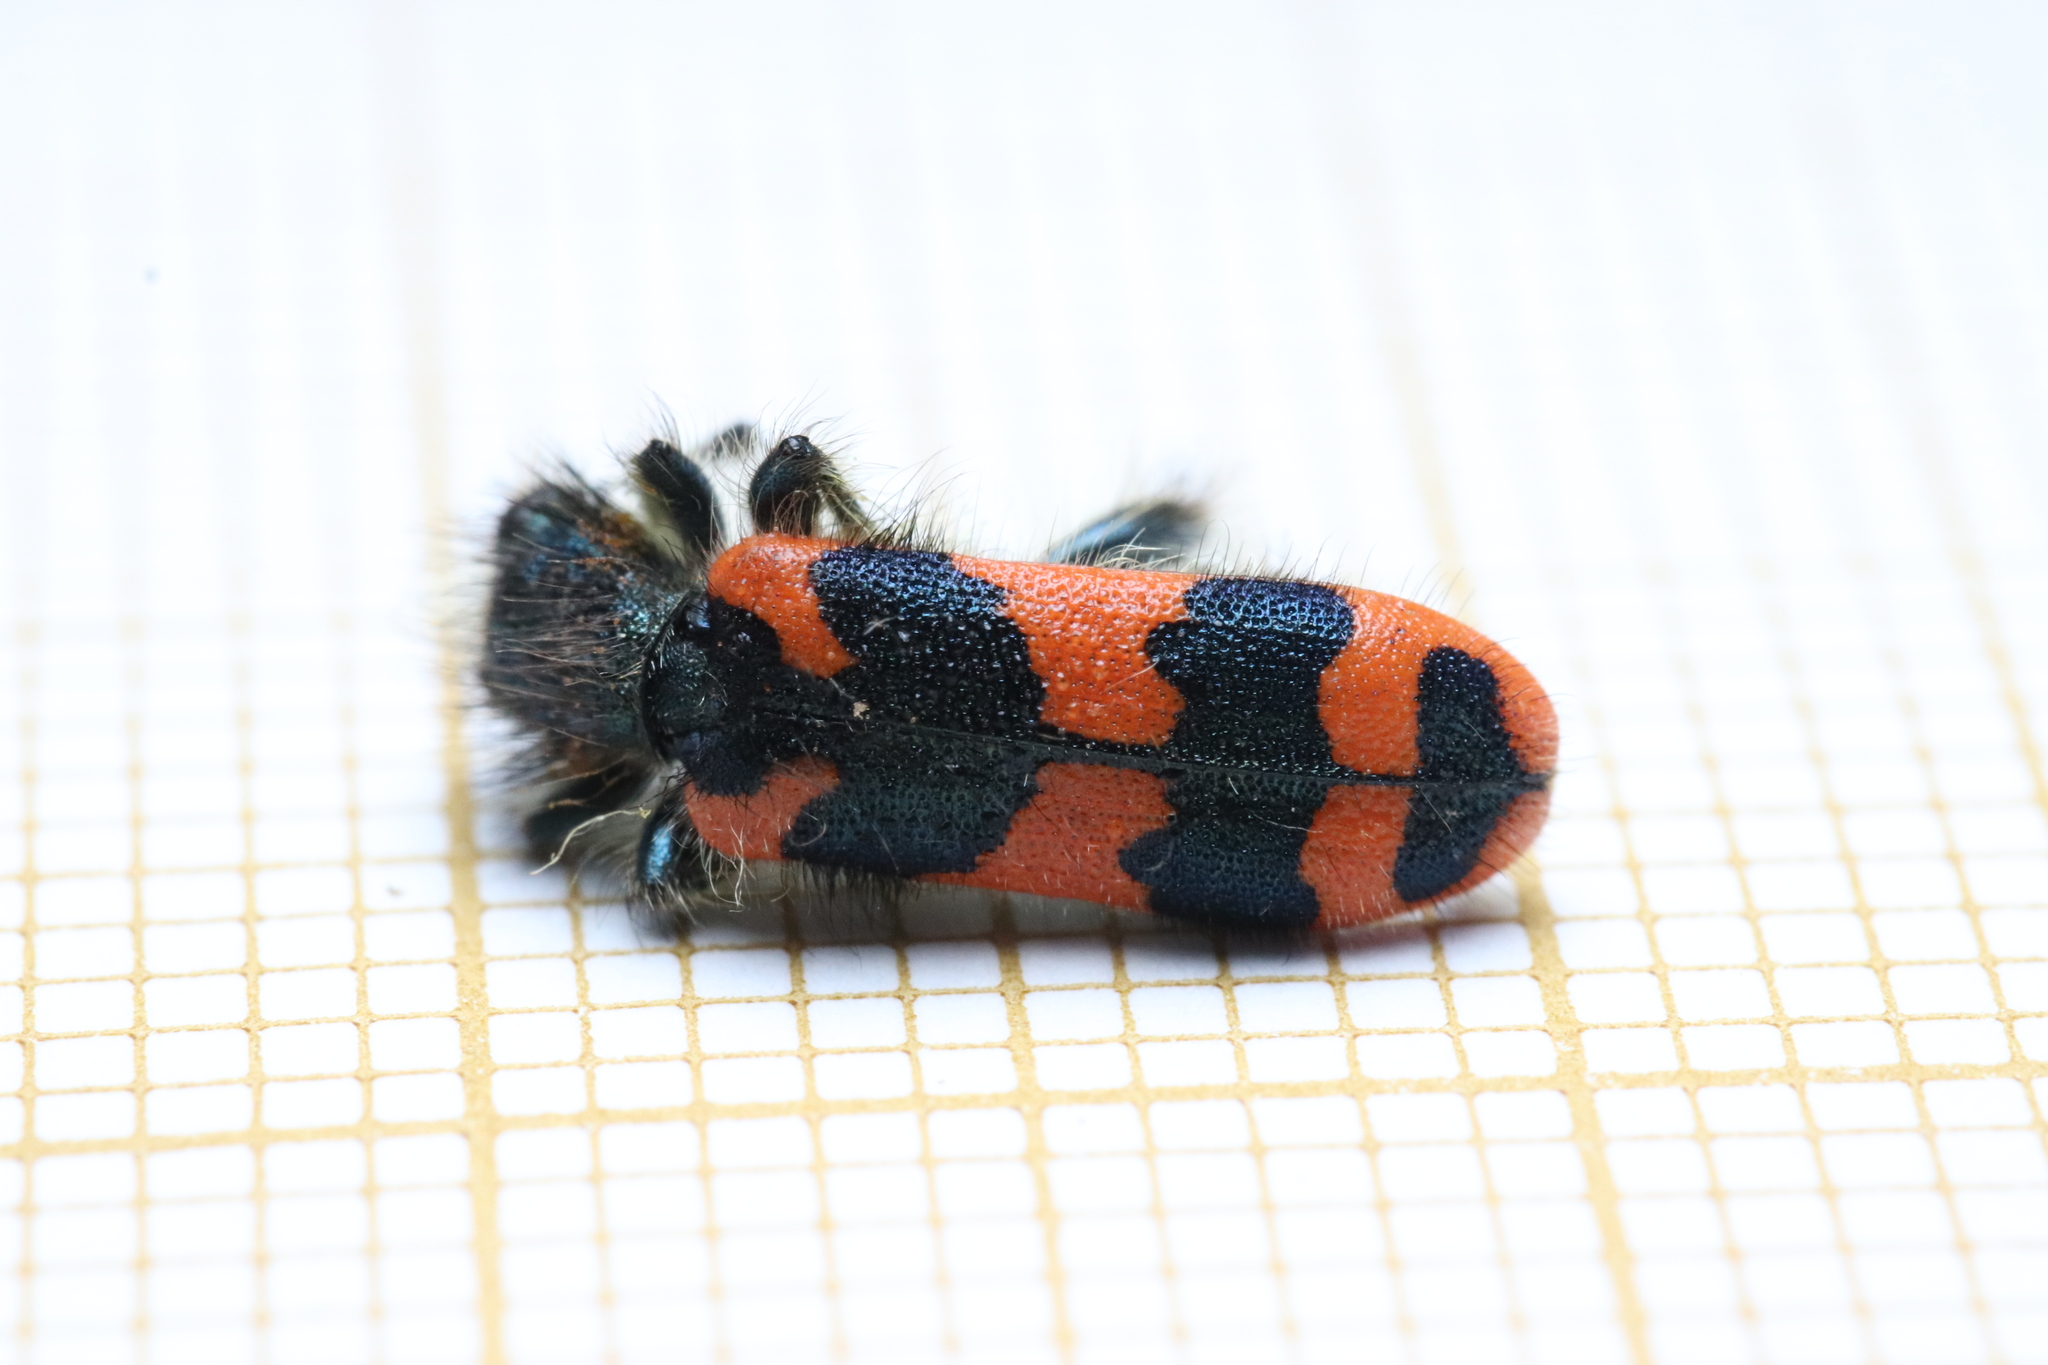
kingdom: Animalia
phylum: Arthropoda
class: Insecta
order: Coleoptera
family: Cleridae
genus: Trichodes
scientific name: Trichodes alvearius
